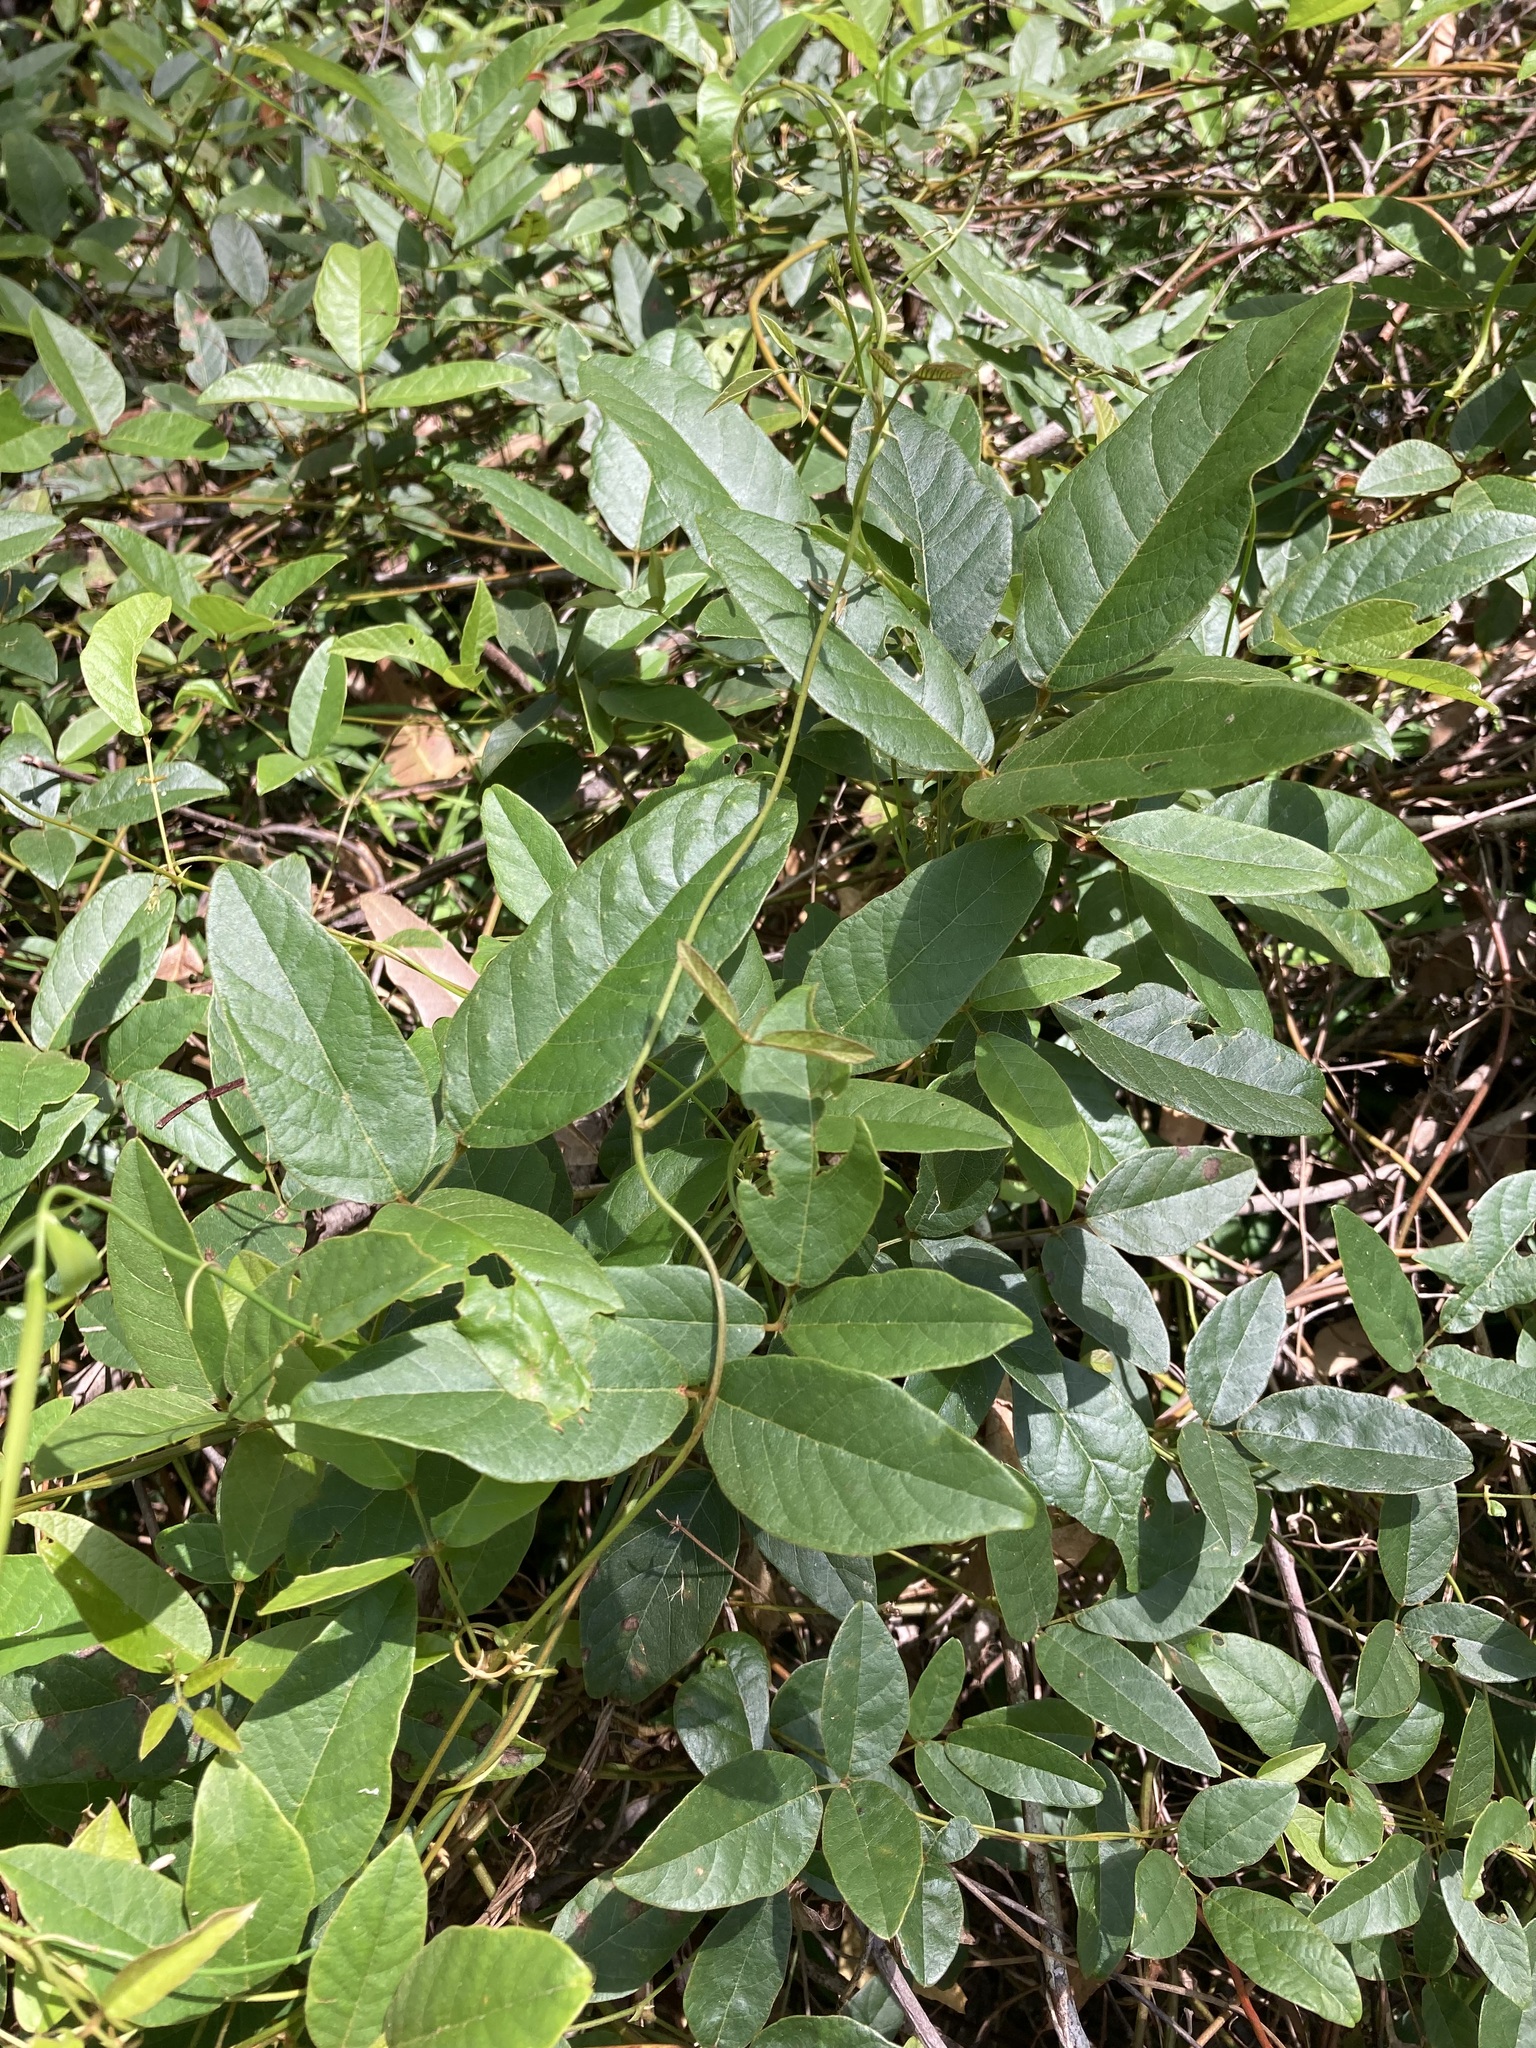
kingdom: Plantae
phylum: Tracheophyta
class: Magnoliopsida
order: Fabales
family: Fabaceae
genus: Kennedia
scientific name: Kennedia rubicunda
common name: Red kennedy-pea
